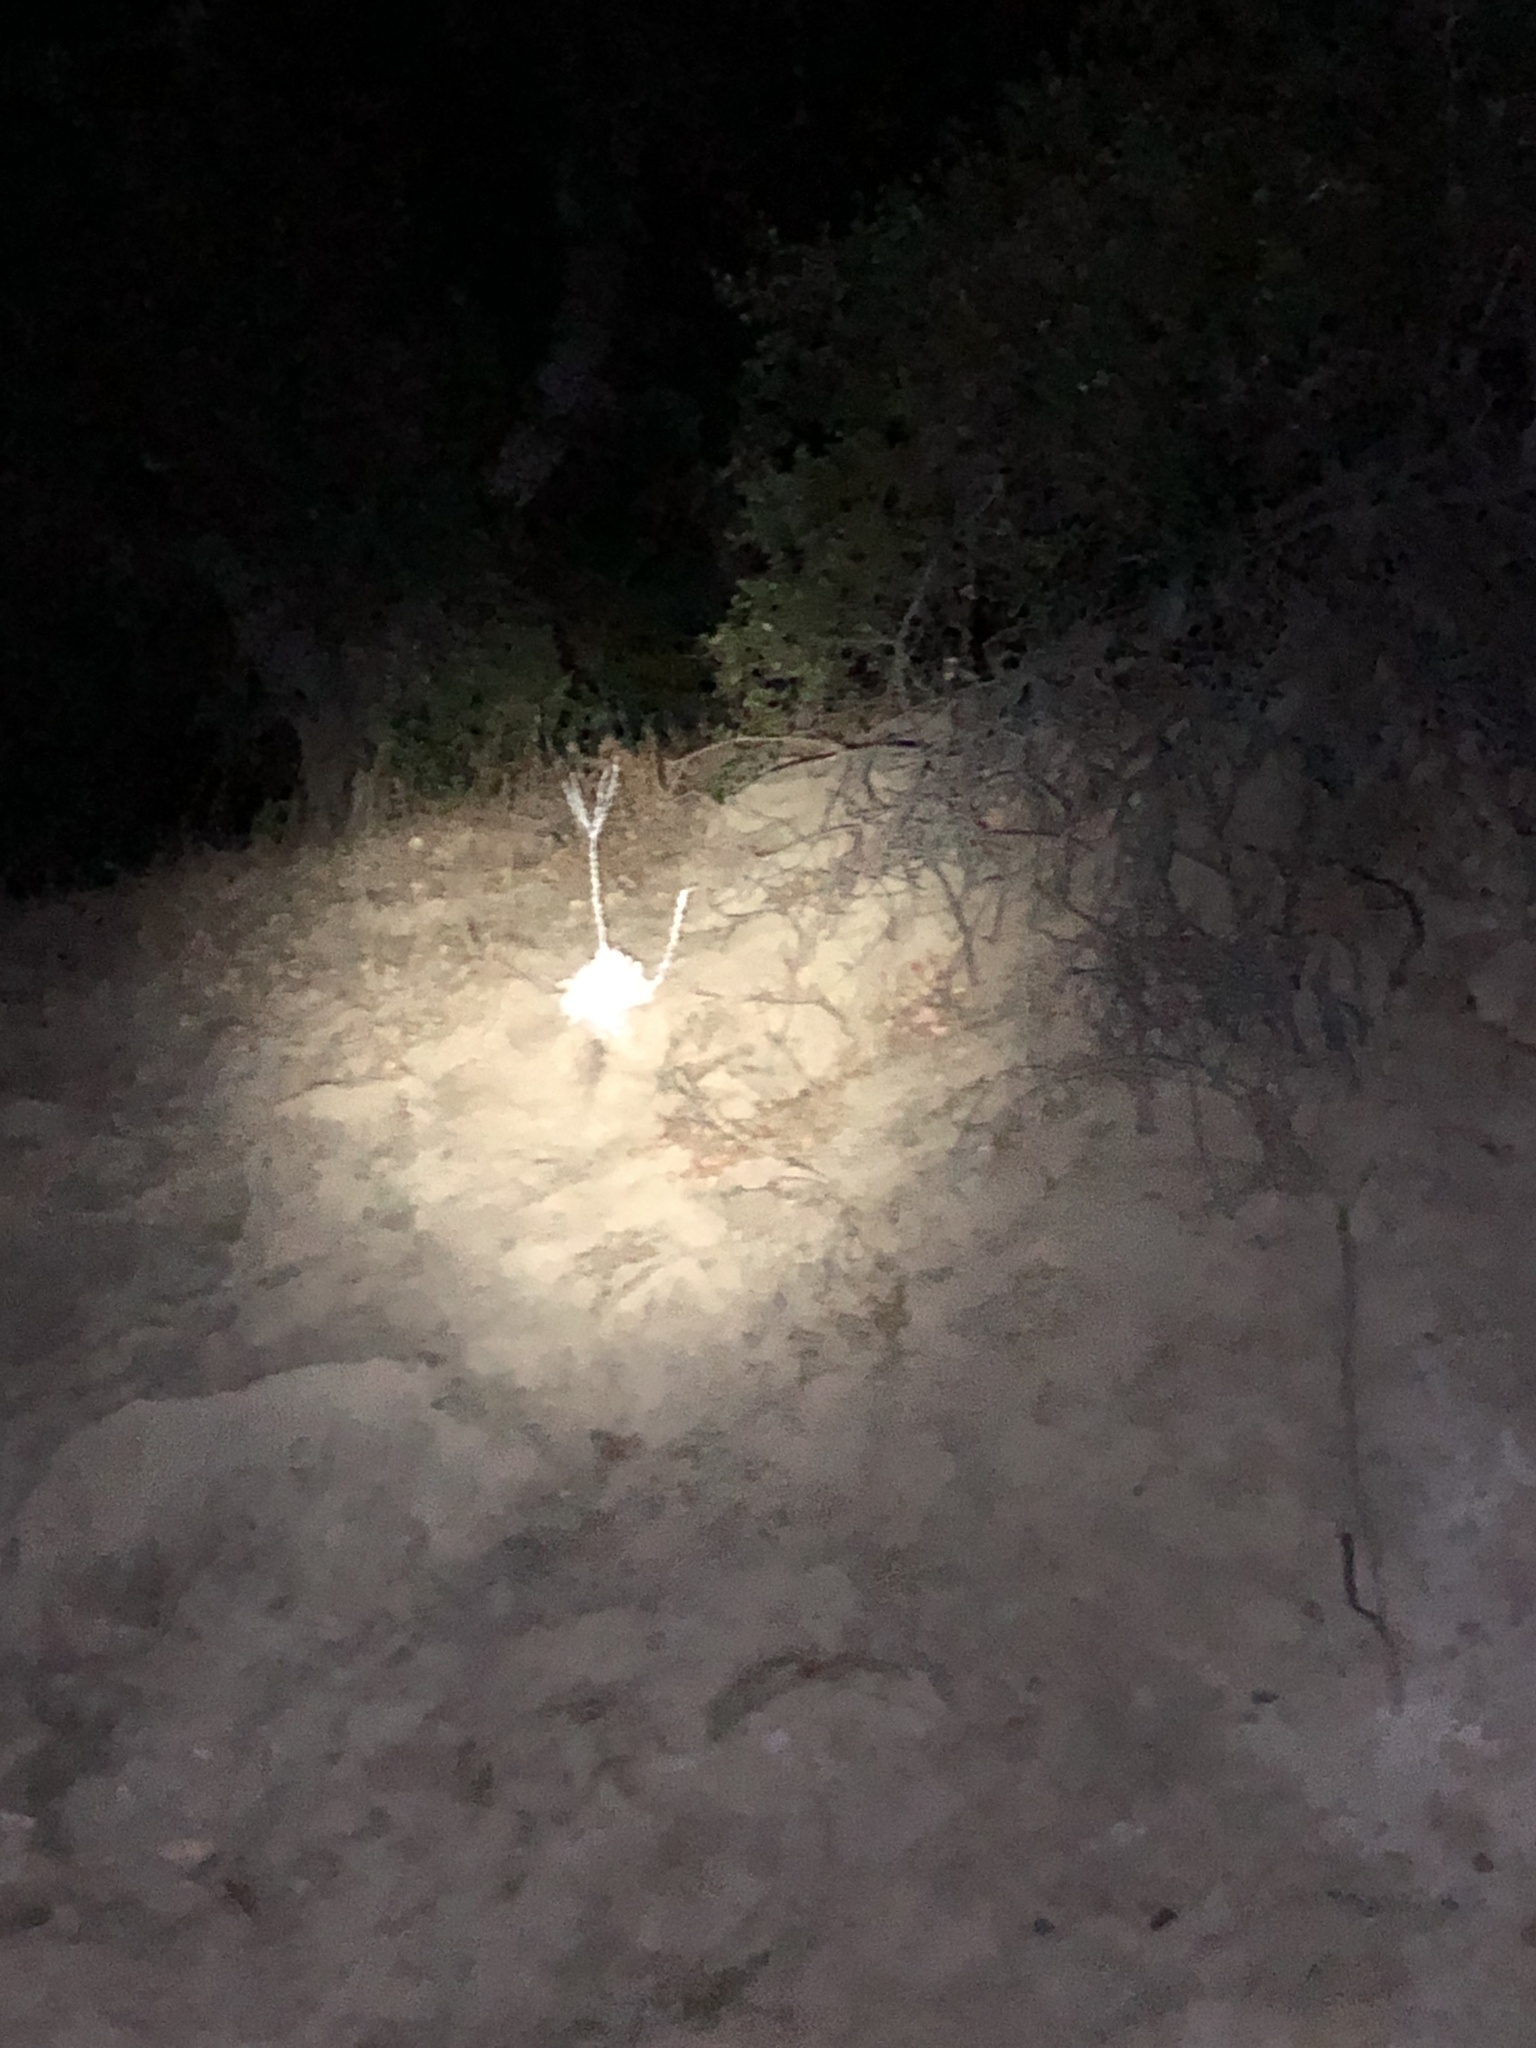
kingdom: Plantae
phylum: Tracheophyta
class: Magnoliopsida
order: Saxifragales
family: Crassulaceae
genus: Dudleya
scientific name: Dudleya pulverulenta
